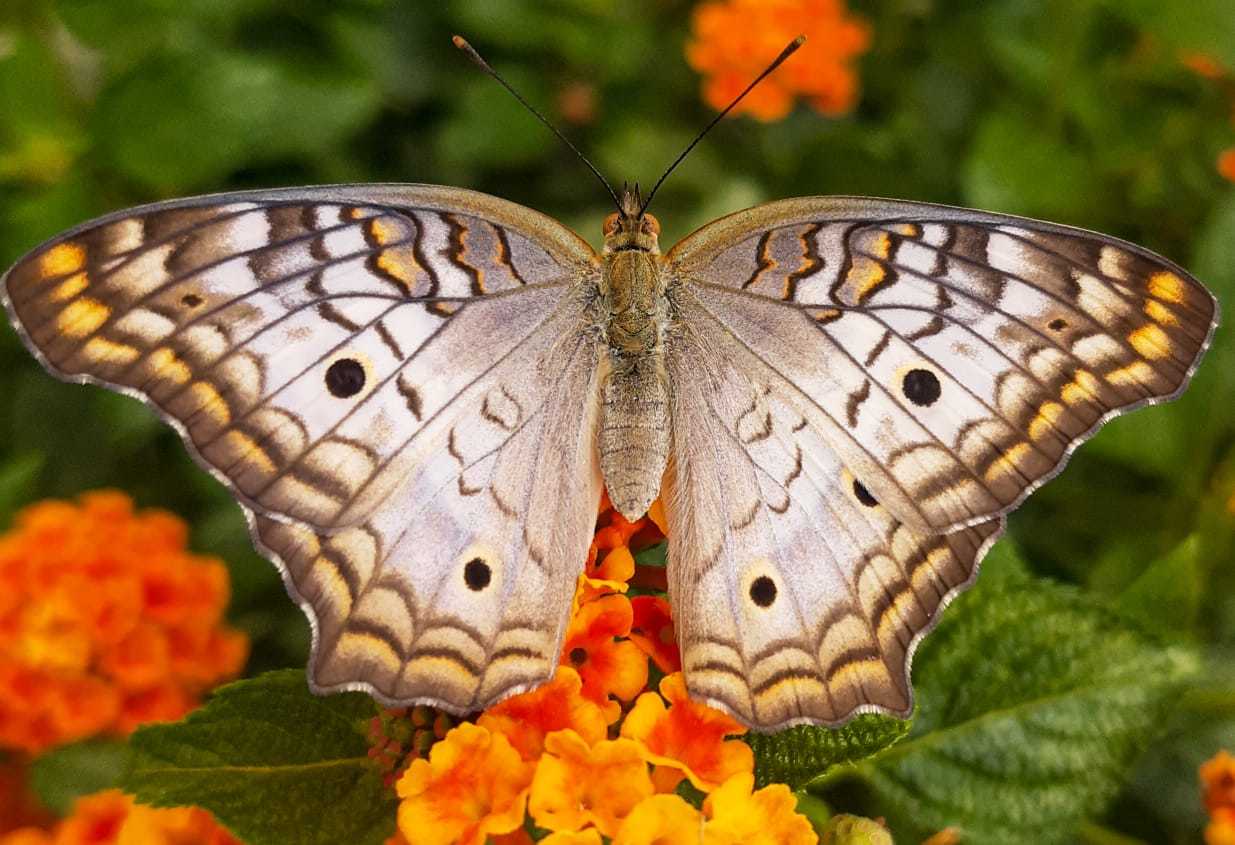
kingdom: Animalia
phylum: Arthropoda
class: Insecta
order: Lepidoptera
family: Nymphalidae
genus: Anartia
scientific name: Anartia jatrophae
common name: White peacock
